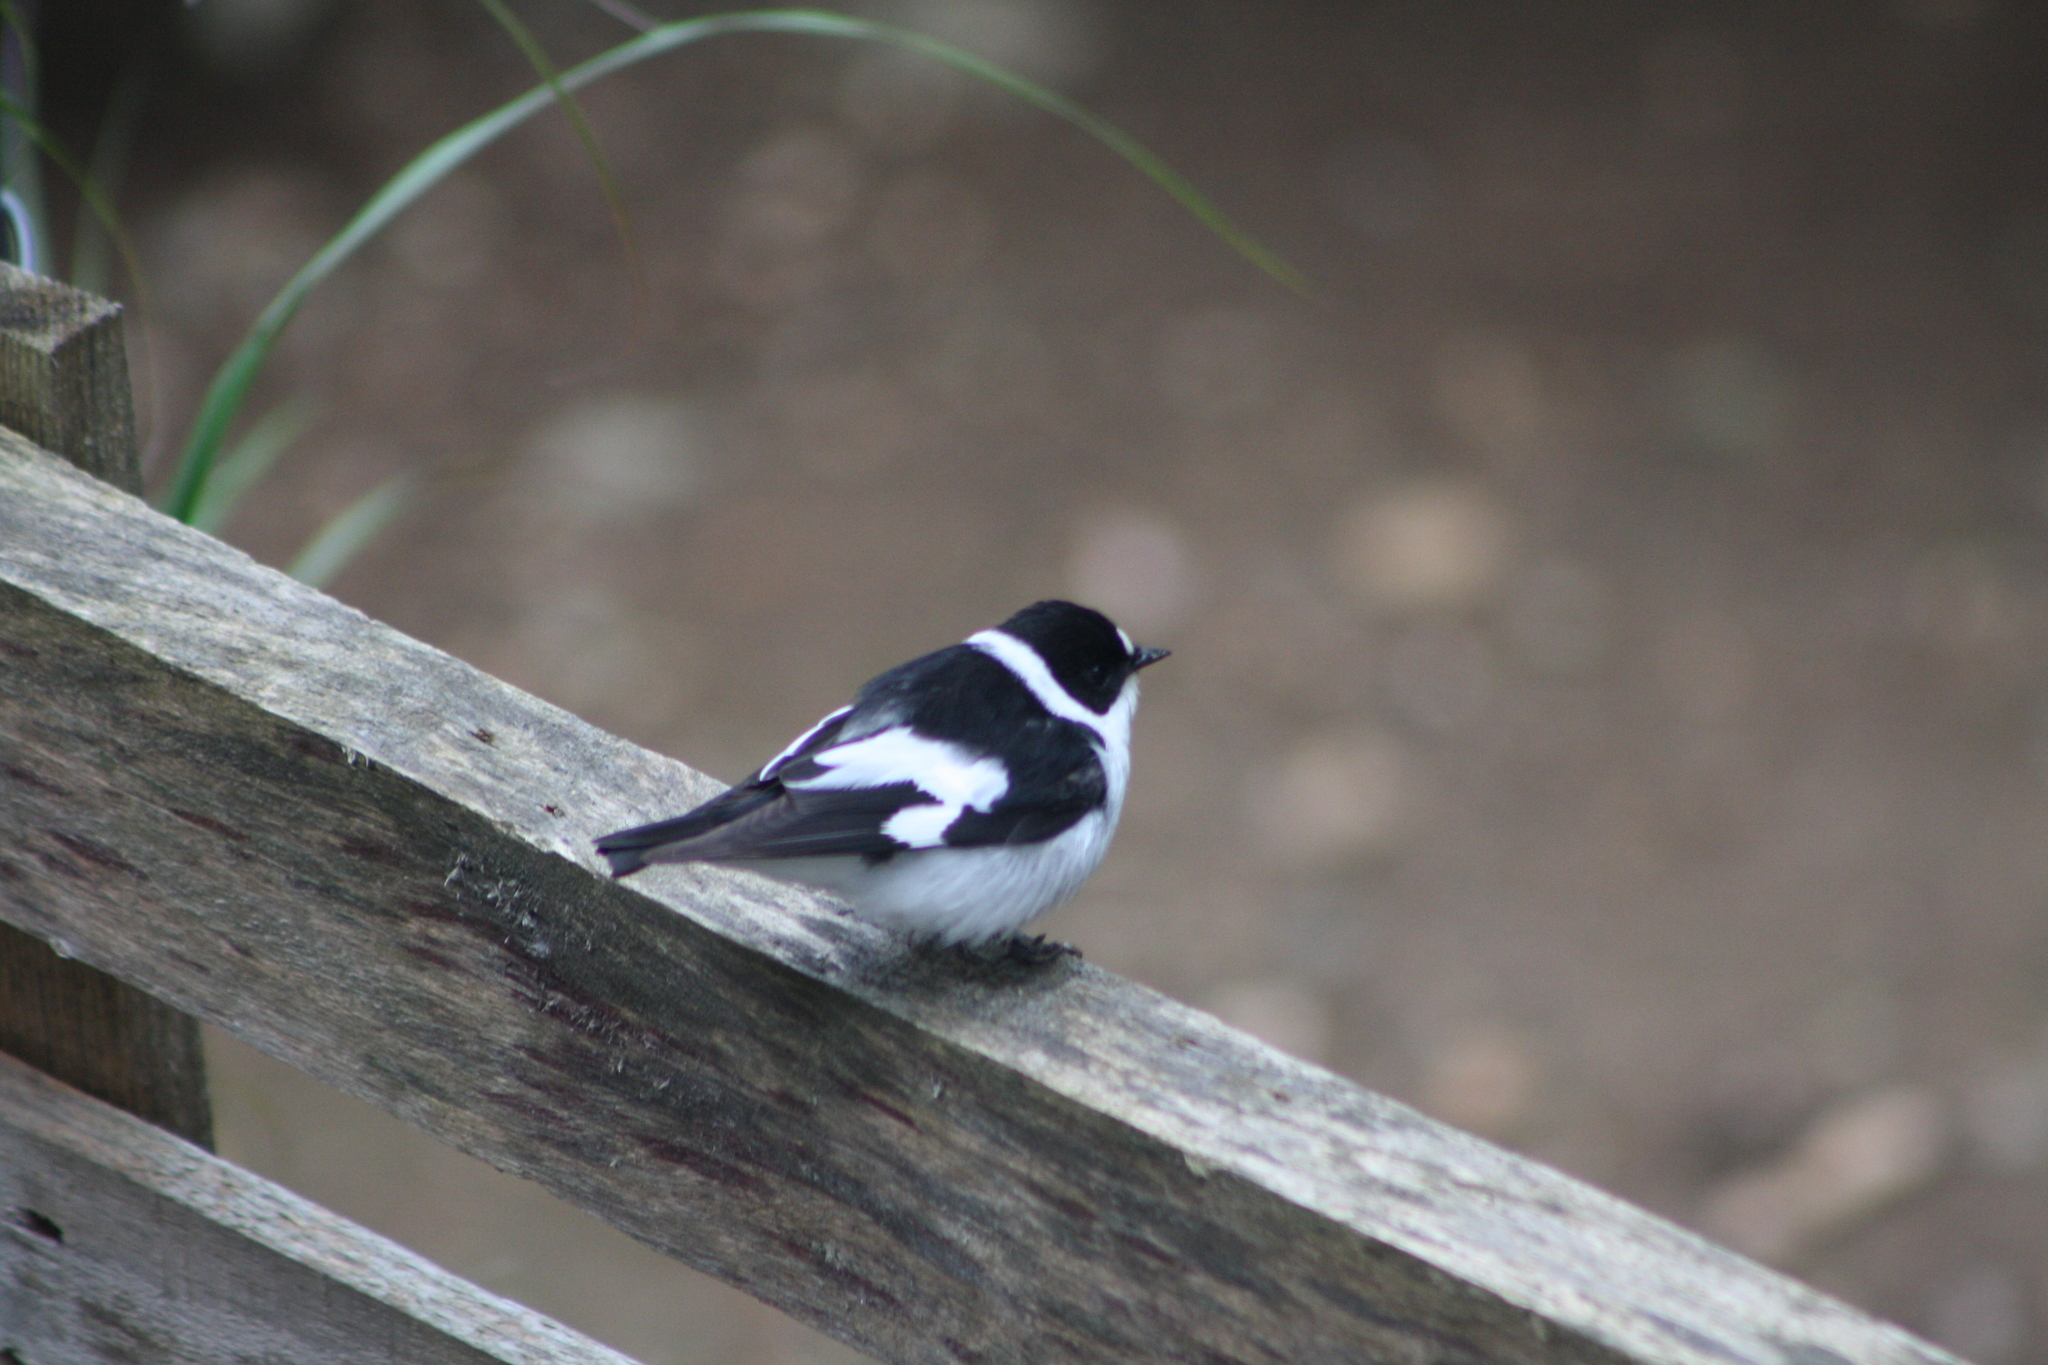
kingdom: Animalia
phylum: Chordata
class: Aves
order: Passeriformes
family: Muscicapidae
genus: Ficedula
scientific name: Ficedula albicollis
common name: Collared flycatcher
